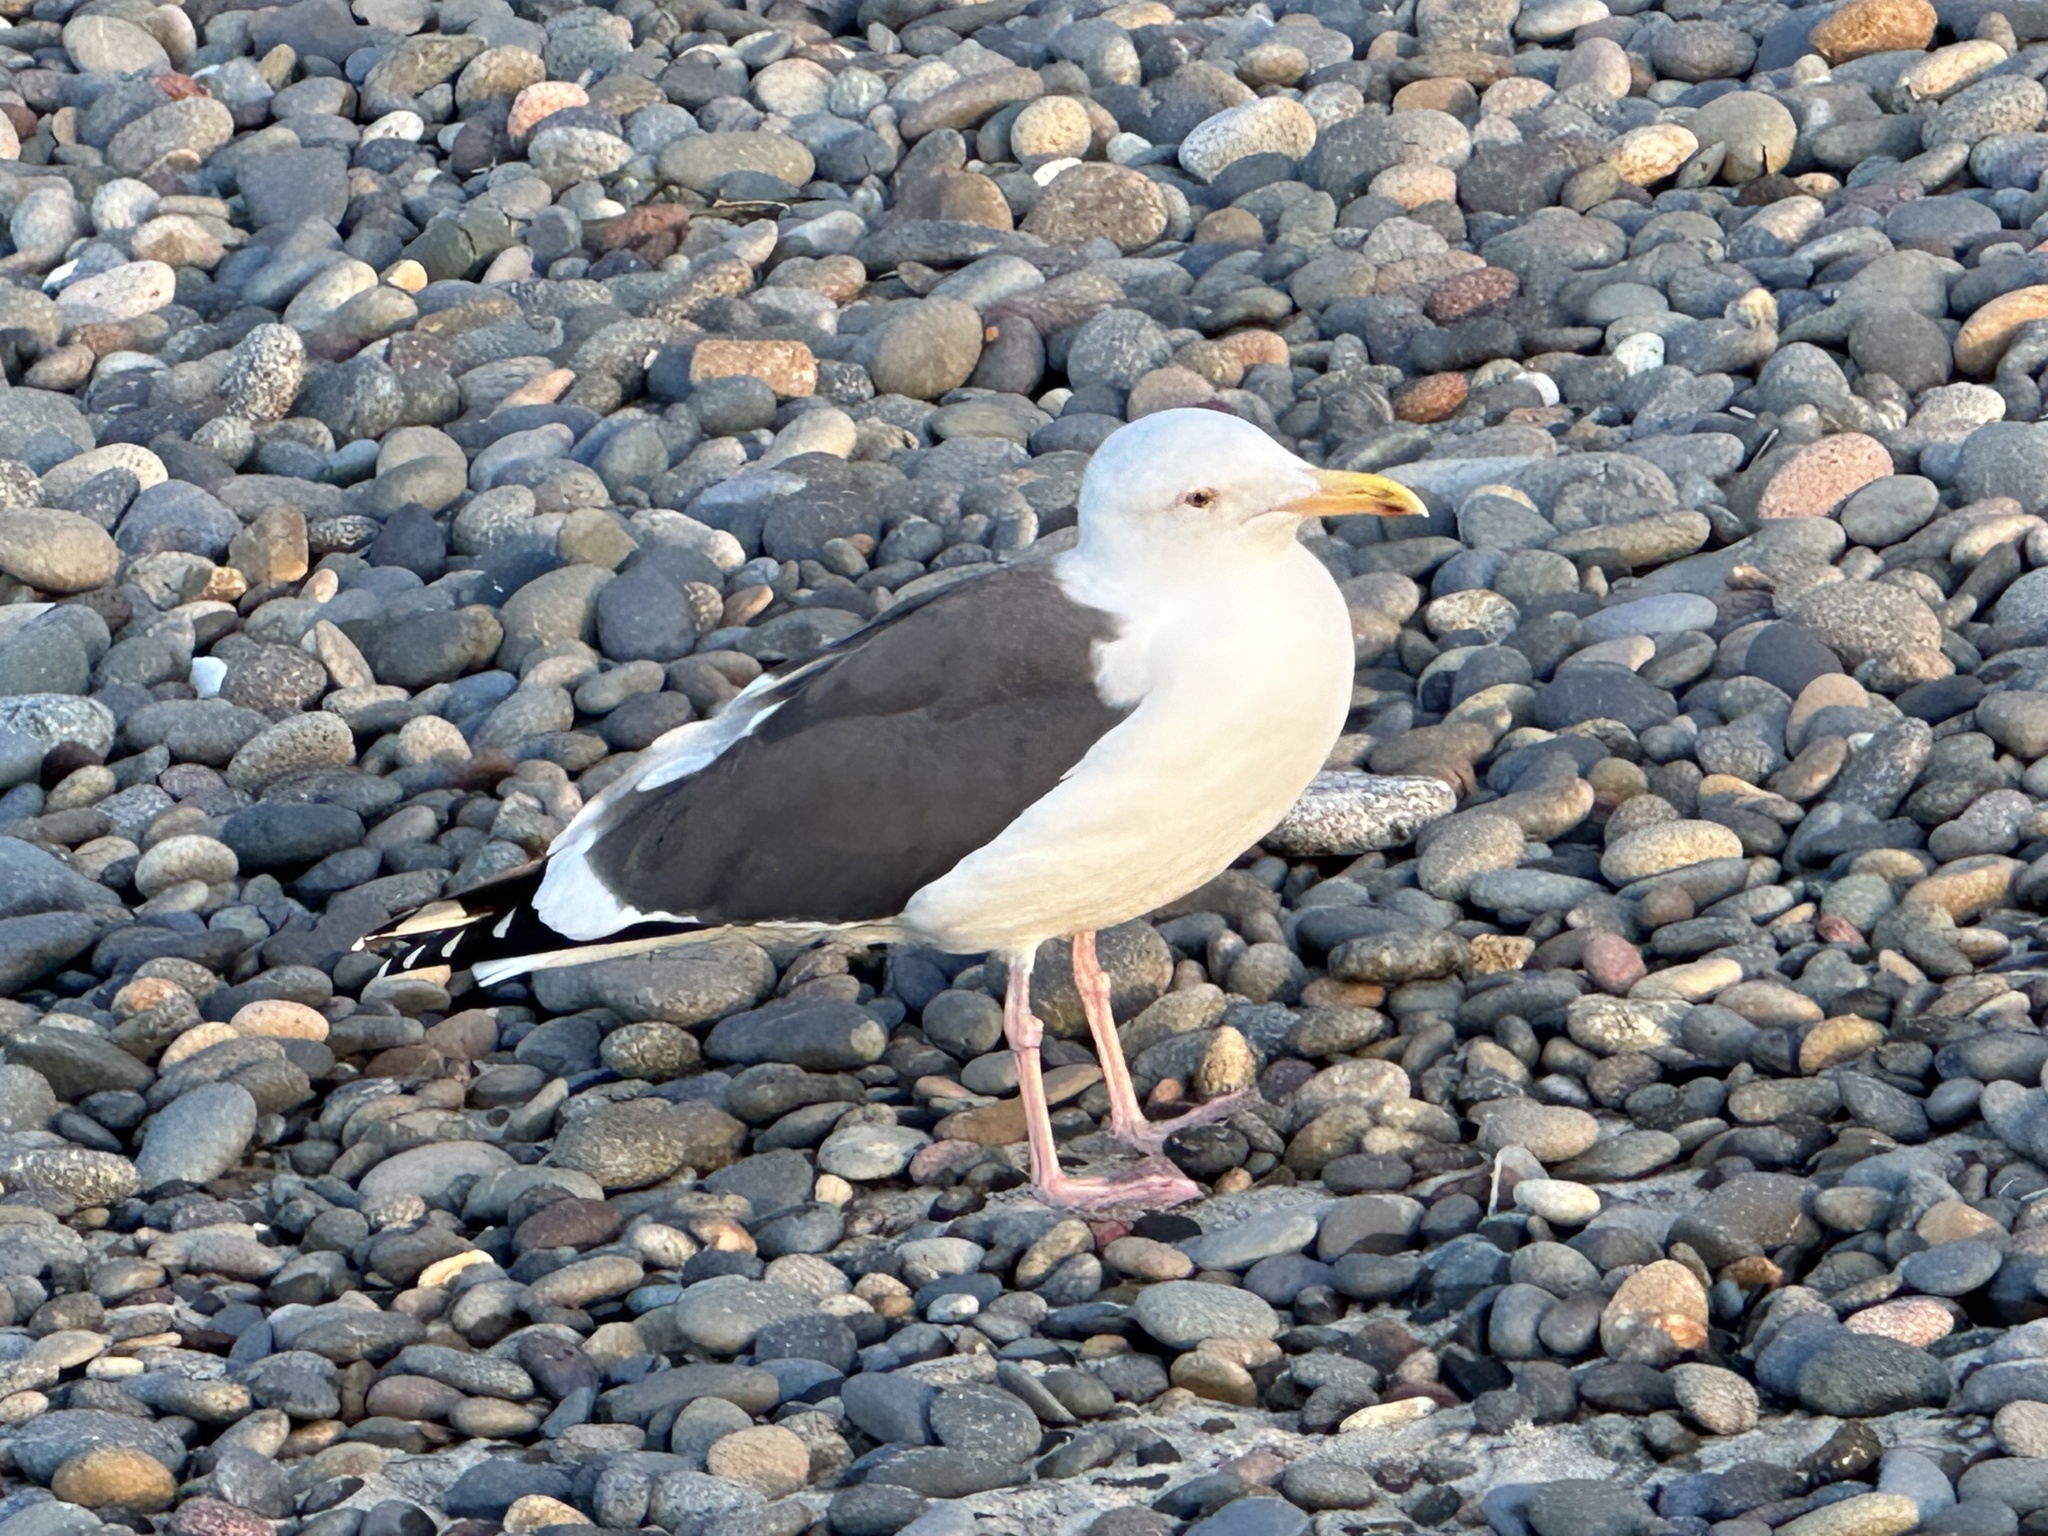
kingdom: Animalia
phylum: Chordata
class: Aves
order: Charadriiformes
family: Laridae
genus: Larus
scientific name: Larus occidentalis
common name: Western gull
